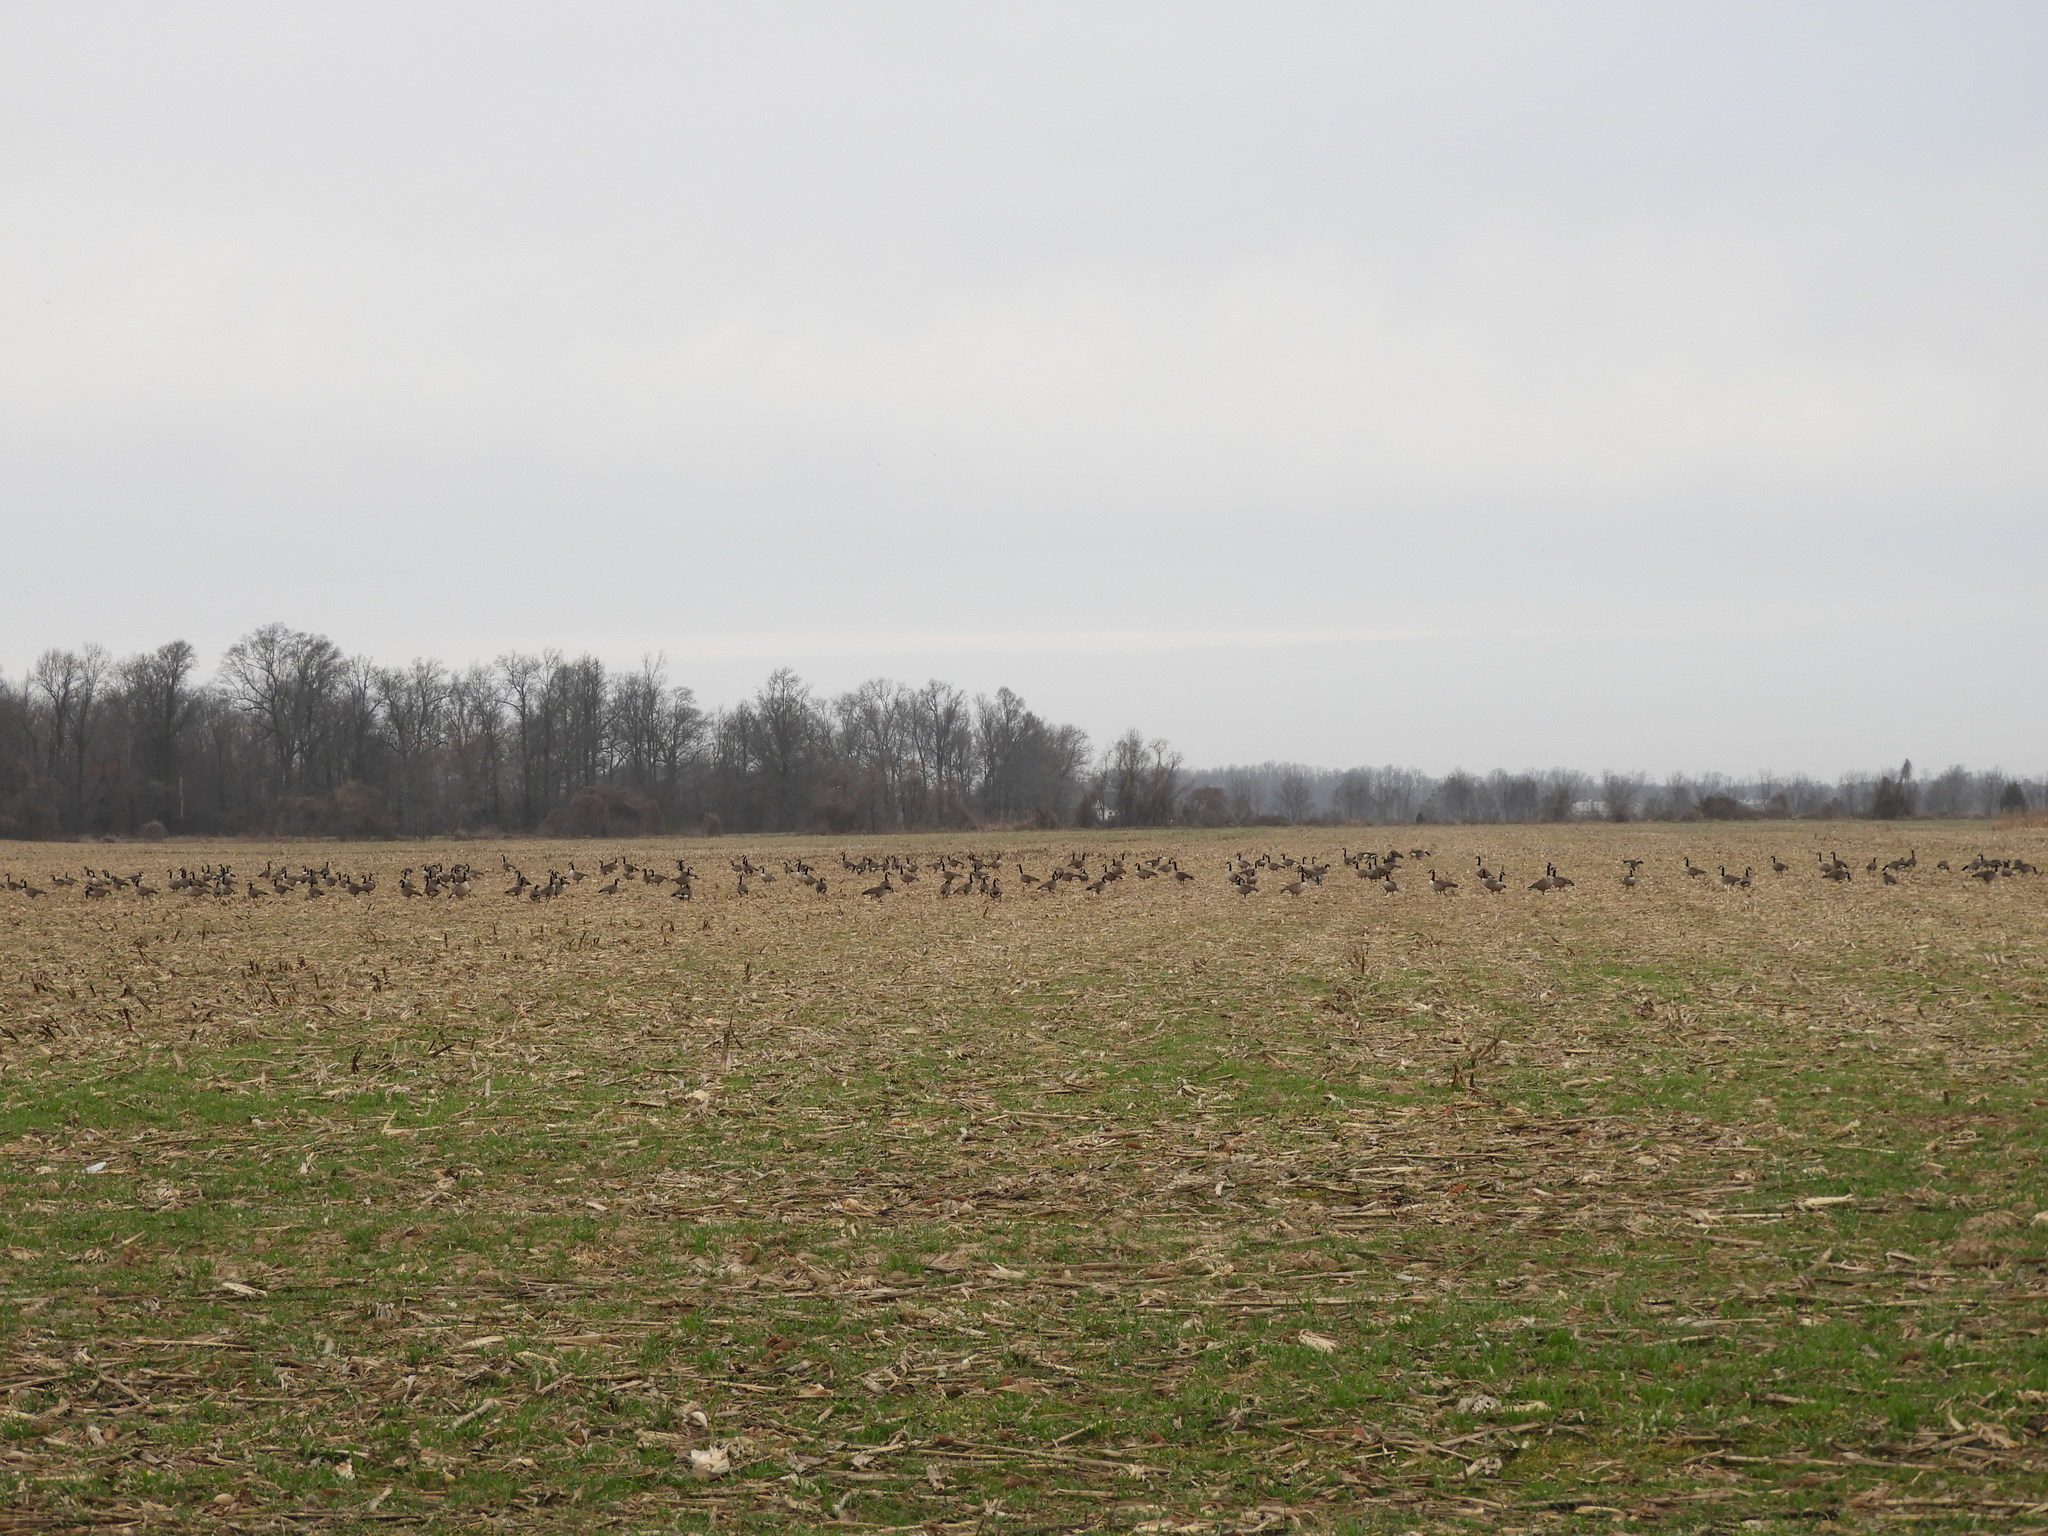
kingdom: Animalia
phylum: Chordata
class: Aves
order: Anseriformes
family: Anatidae
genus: Branta
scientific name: Branta canadensis
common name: Canada goose
